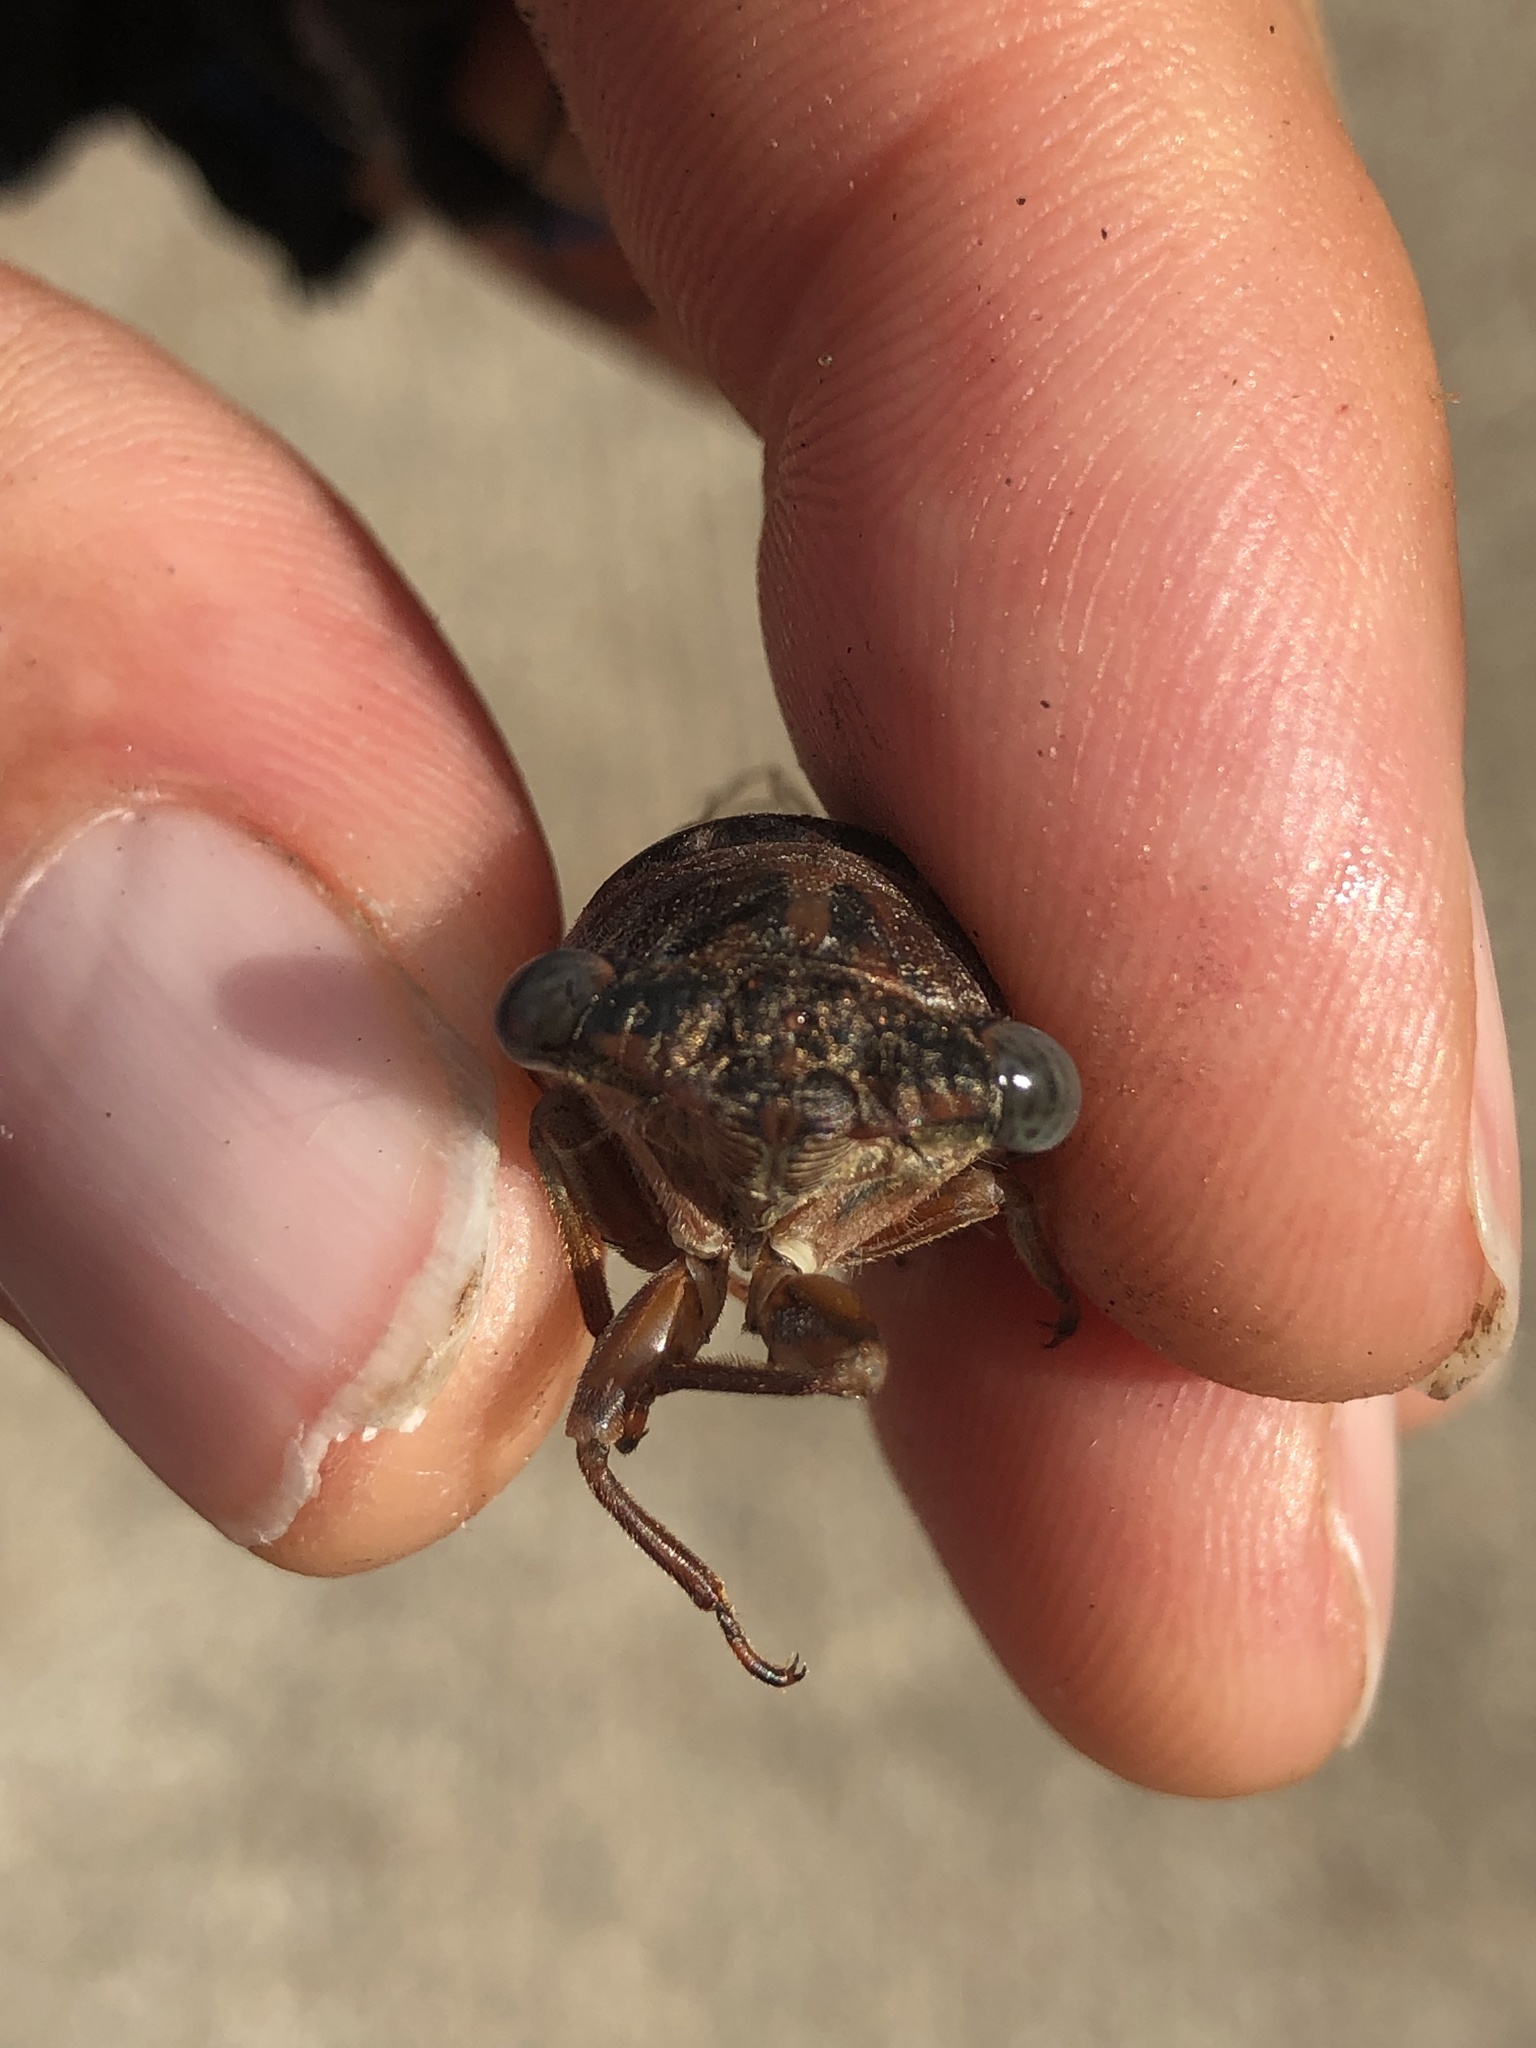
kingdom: Animalia
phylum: Arthropoda
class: Insecta
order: Hemiptera
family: Cicadidae
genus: Neotibicen
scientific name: Neotibicen davisi
